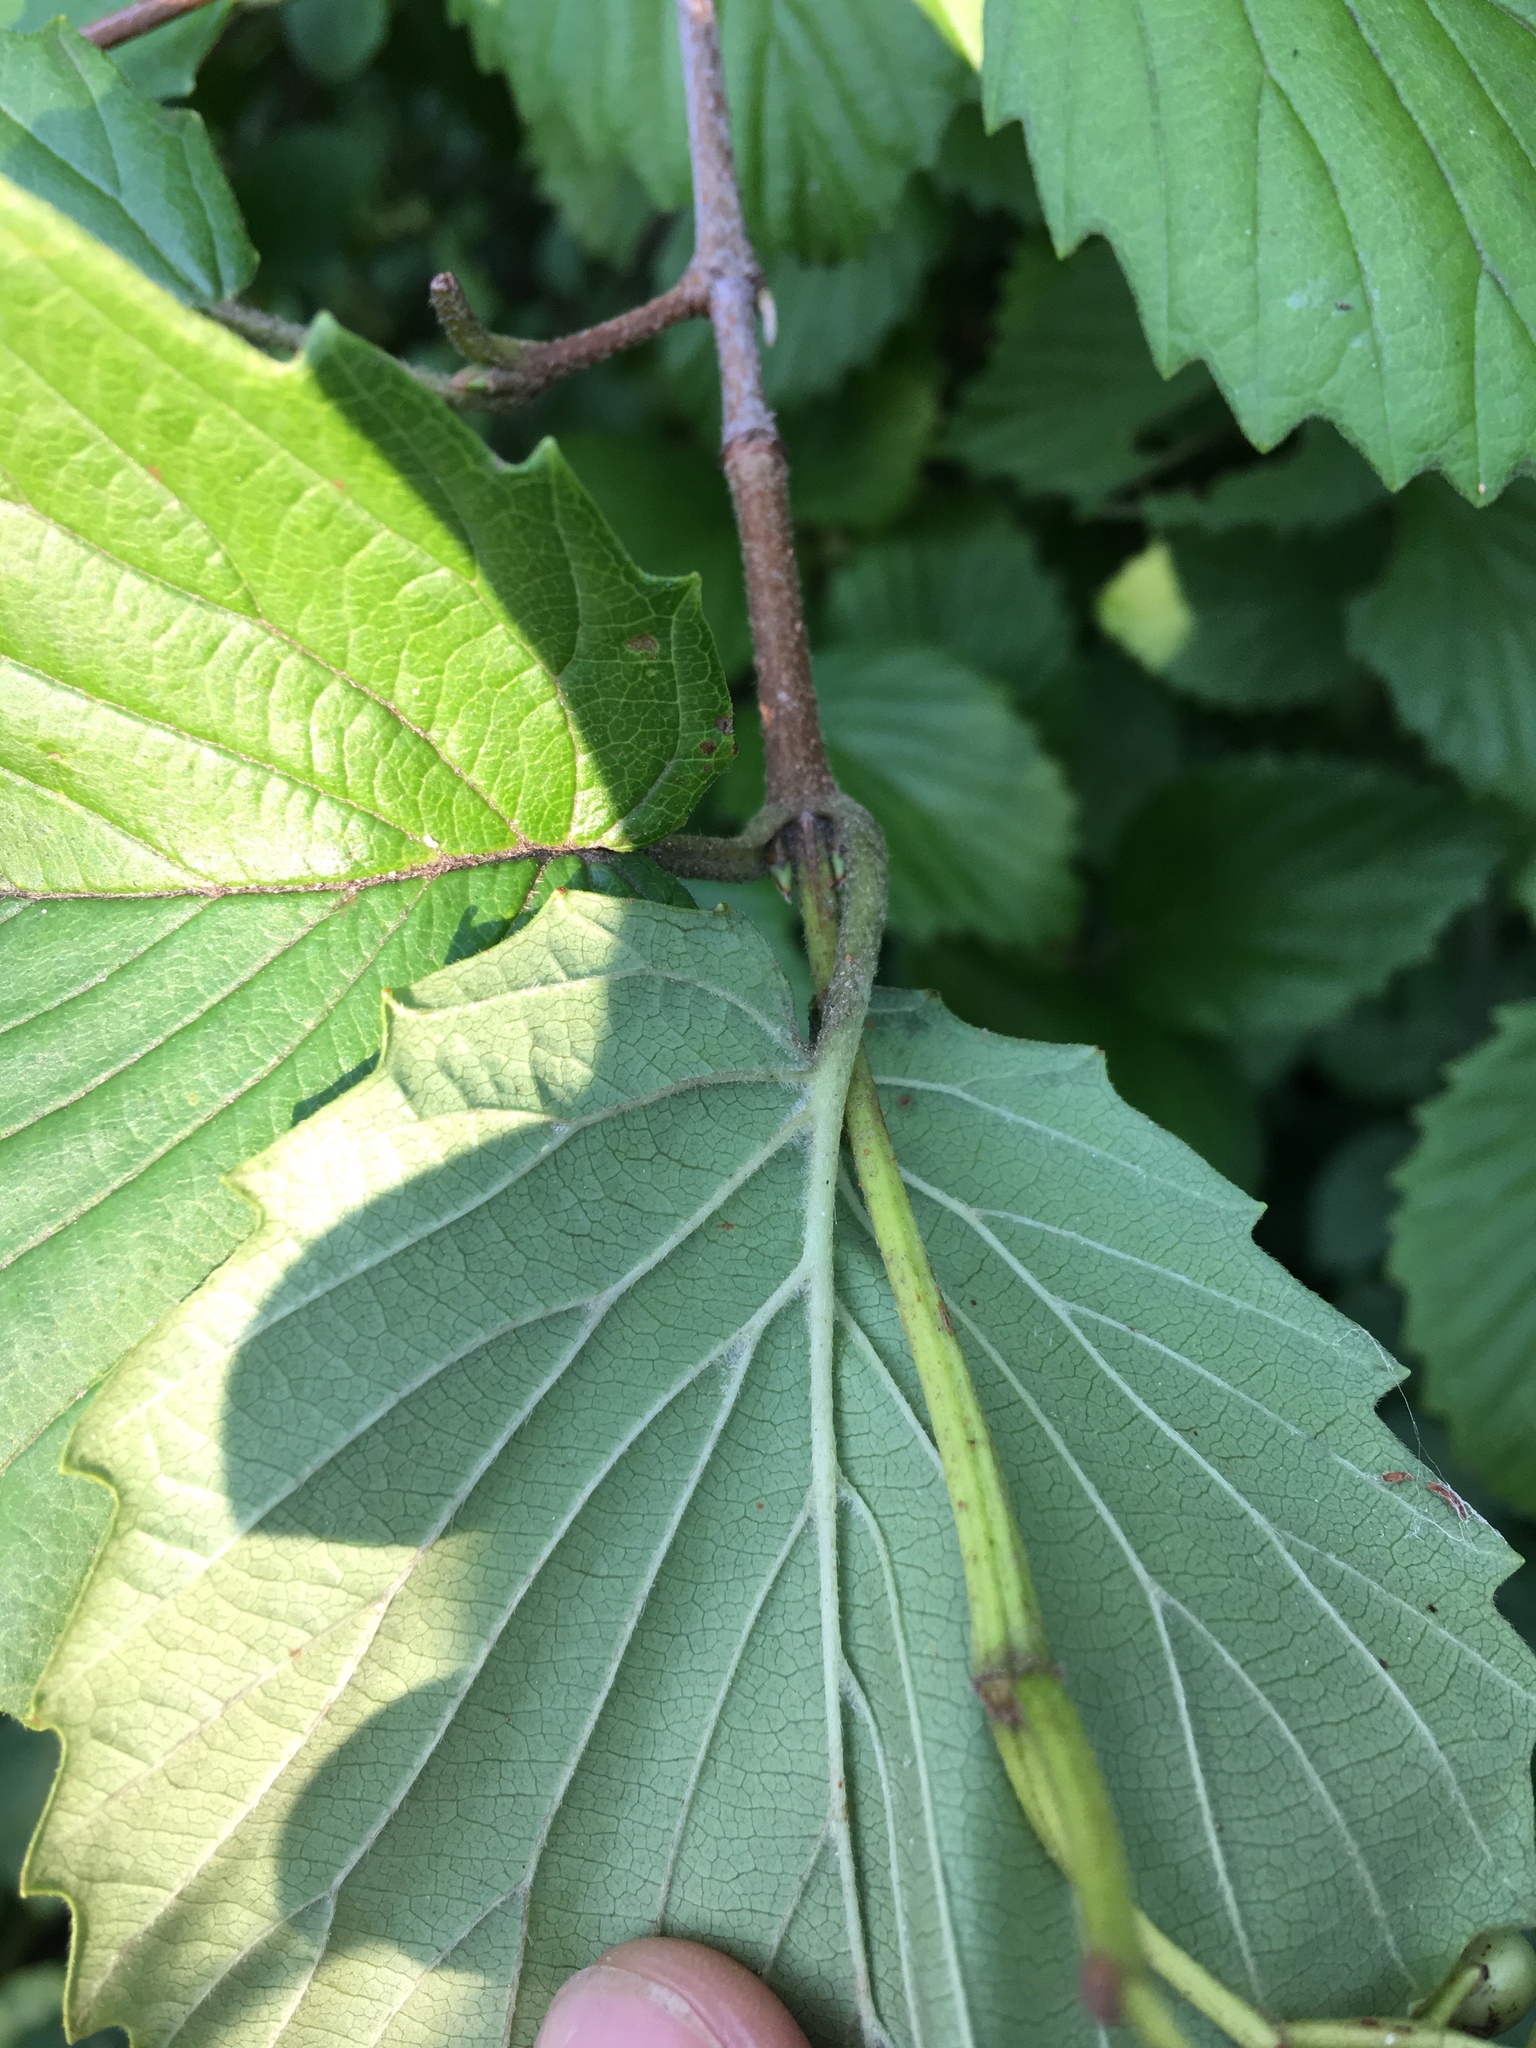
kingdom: Plantae
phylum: Tracheophyta
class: Magnoliopsida
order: Dipsacales
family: Viburnaceae
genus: Viburnum
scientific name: Viburnum dentatum
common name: Arrow-wood
